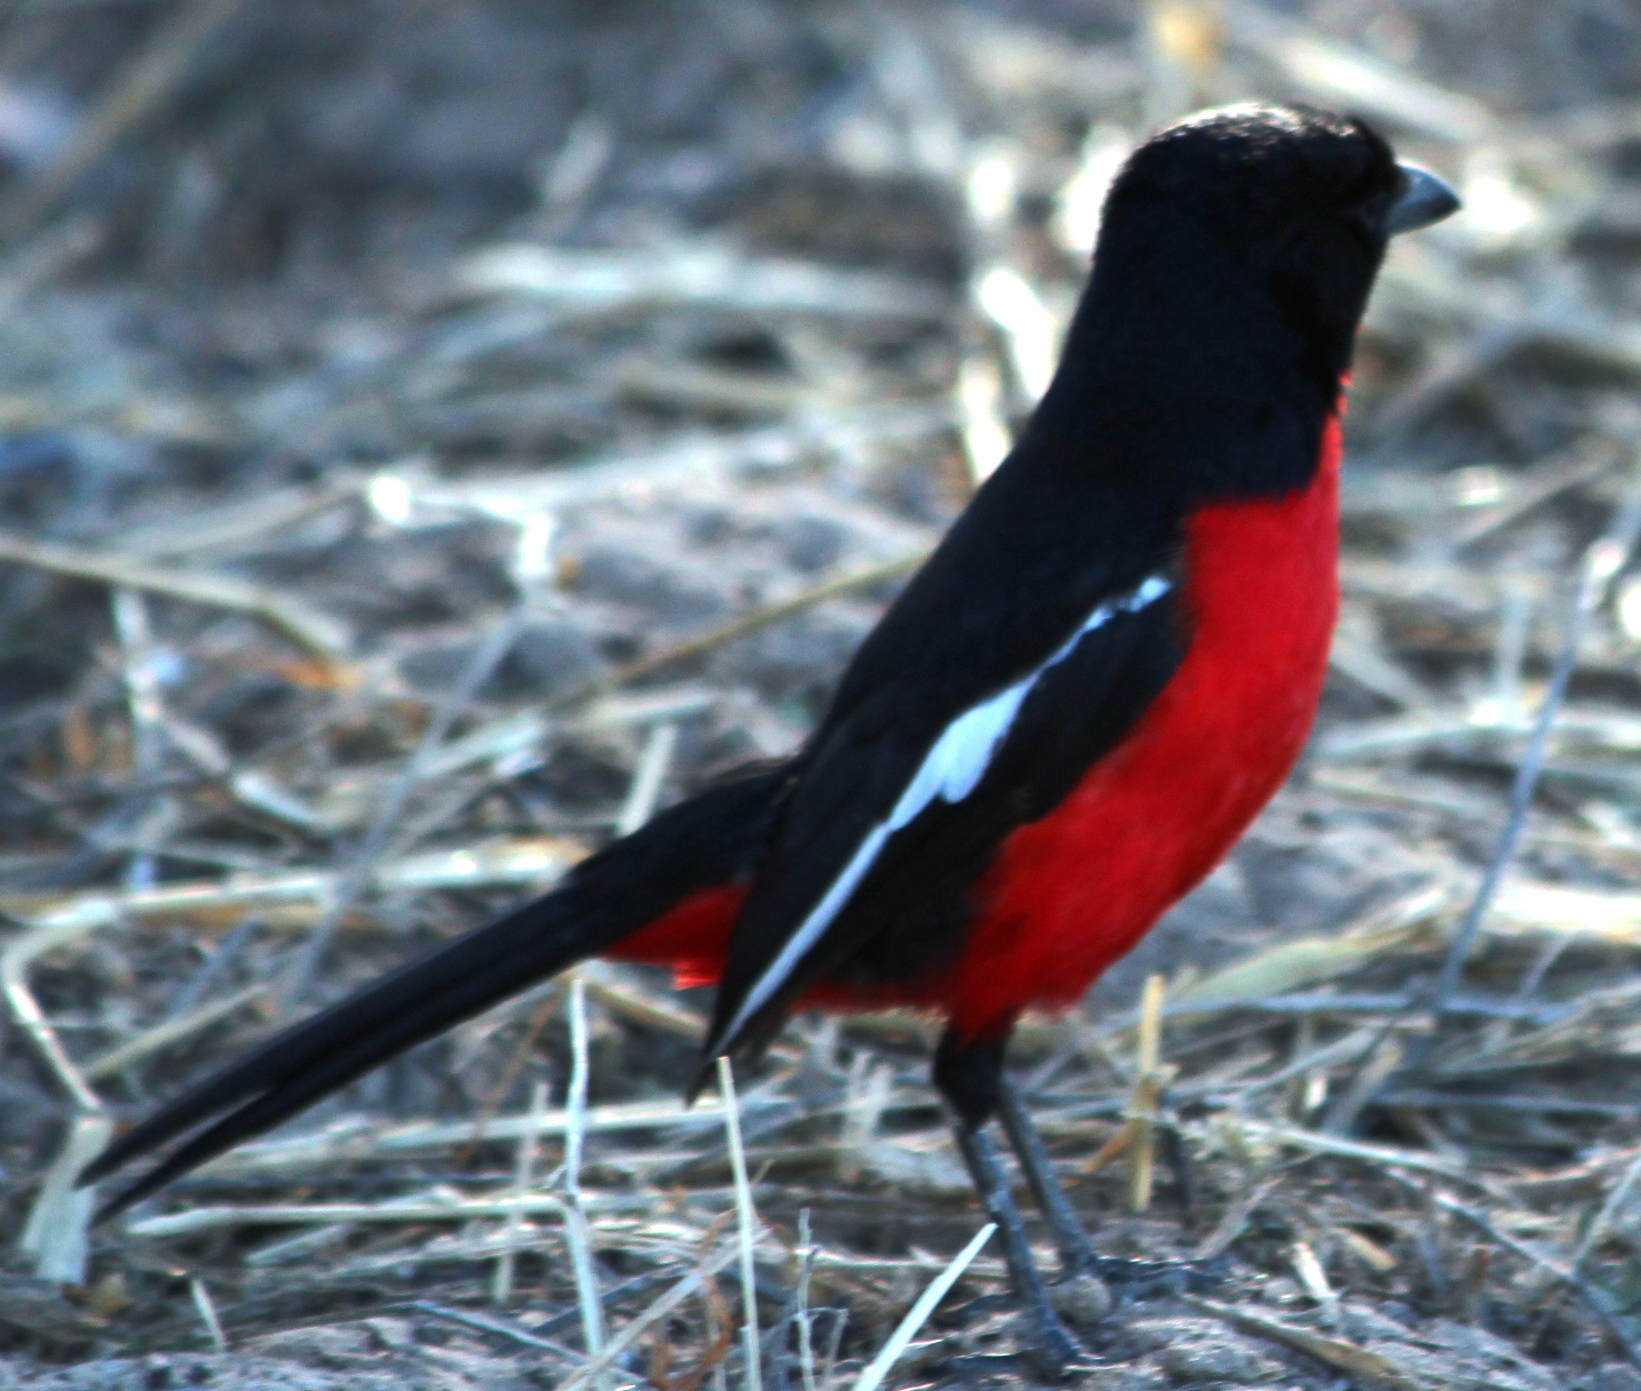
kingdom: Animalia
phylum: Chordata
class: Aves
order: Passeriformes
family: Malaconotidae
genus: Laniarius
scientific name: Laniarius atrococcineus
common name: Crimson-breasted shrike
